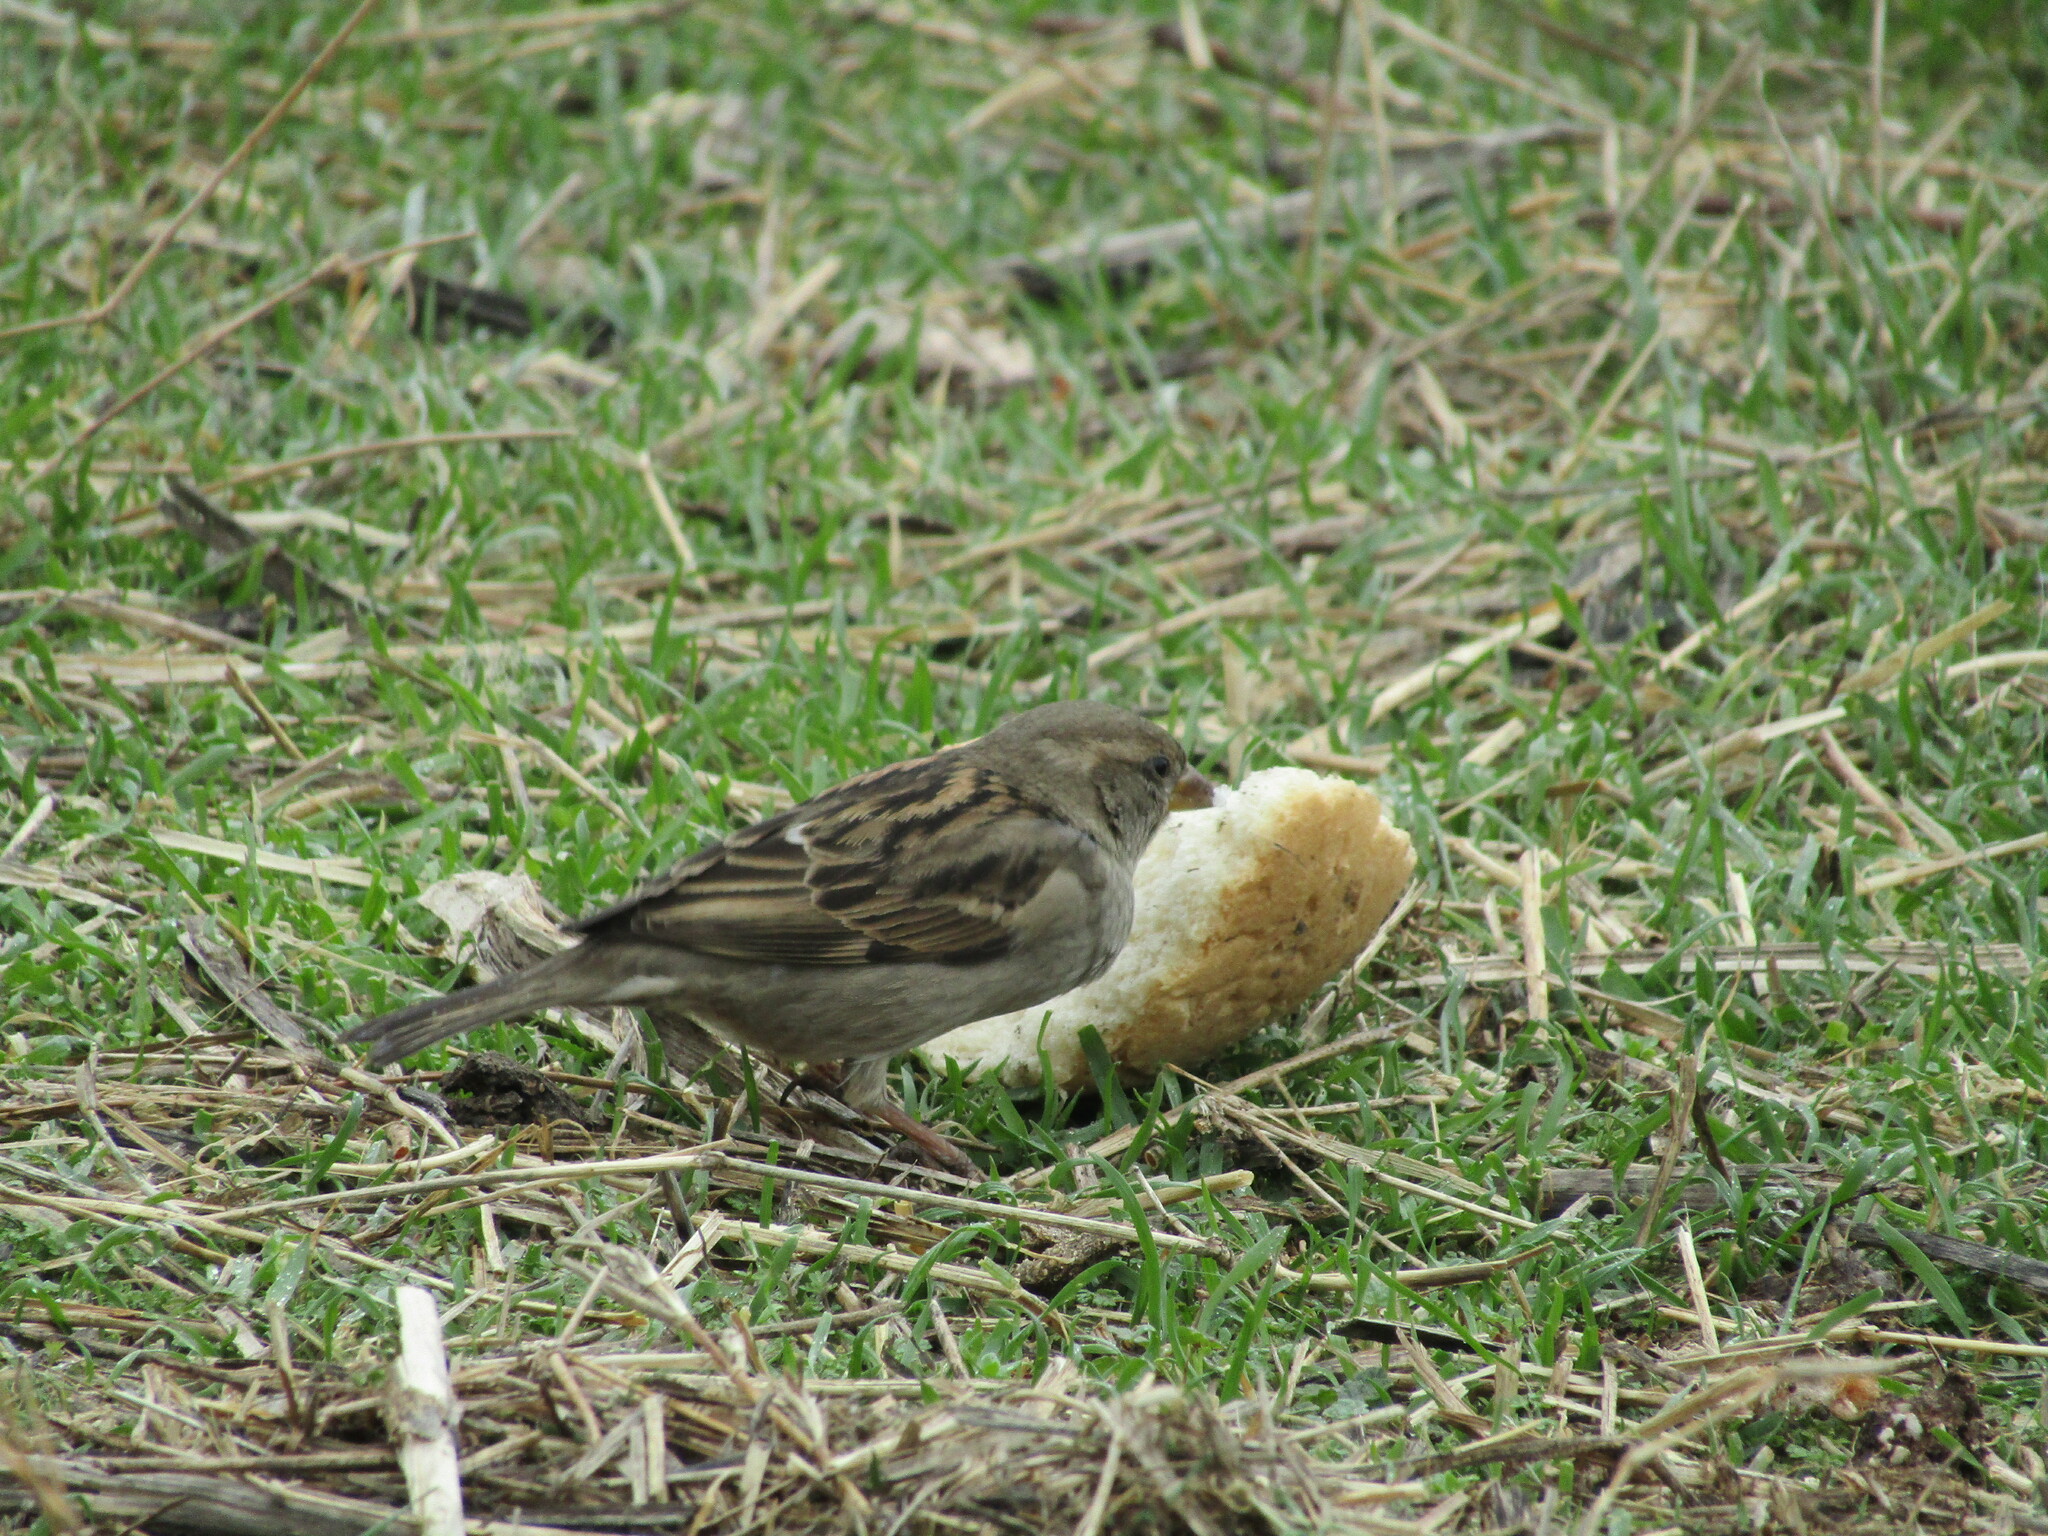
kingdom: Animalia
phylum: Chordata
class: Aves
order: Passeriformes
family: Passeridae
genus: Passer
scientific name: Passer domesticus
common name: House sparrow
